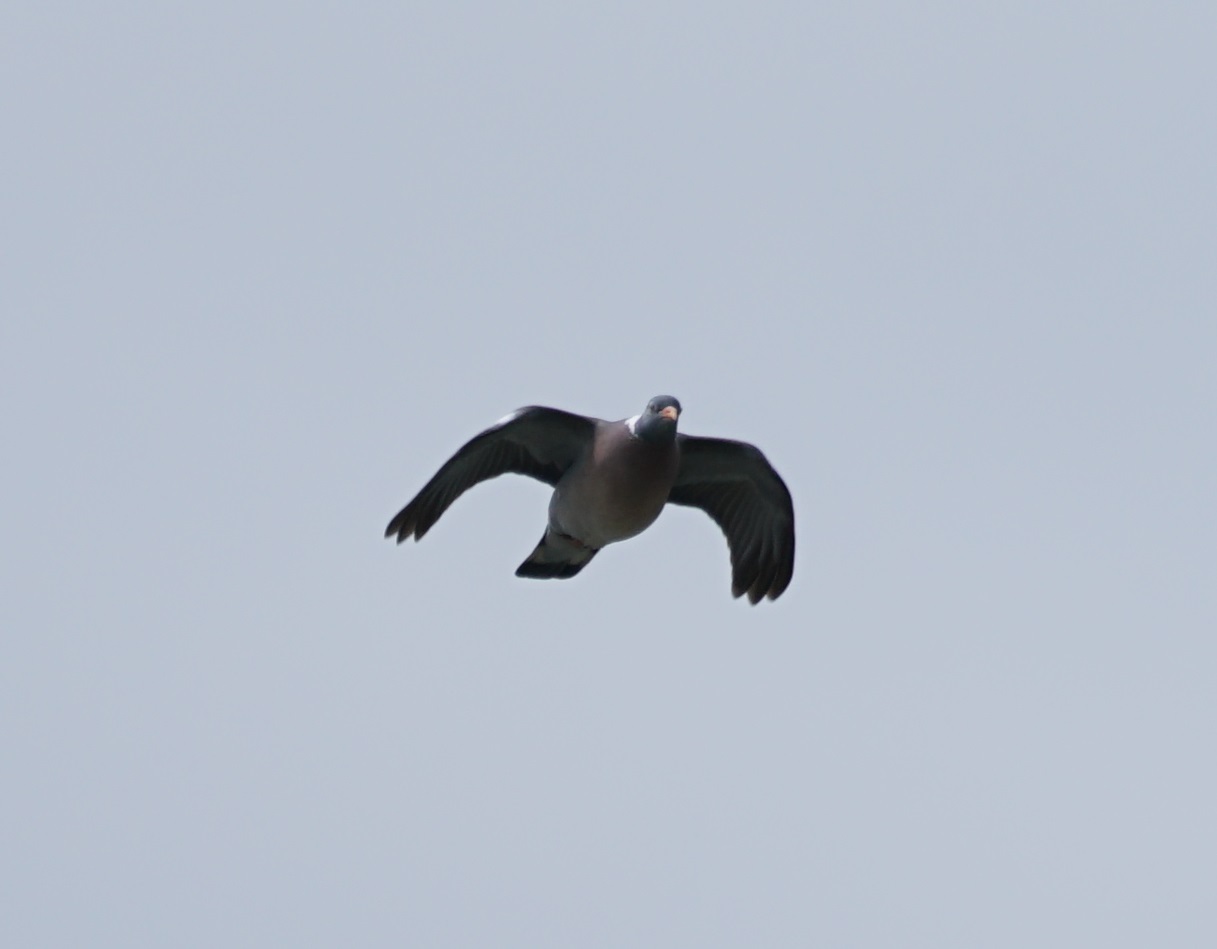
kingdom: Animalia
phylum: Chordata
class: Aves
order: Columbiformes
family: Columbidae
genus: Columba
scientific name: Columba palumbus
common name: Common wood pigeon
